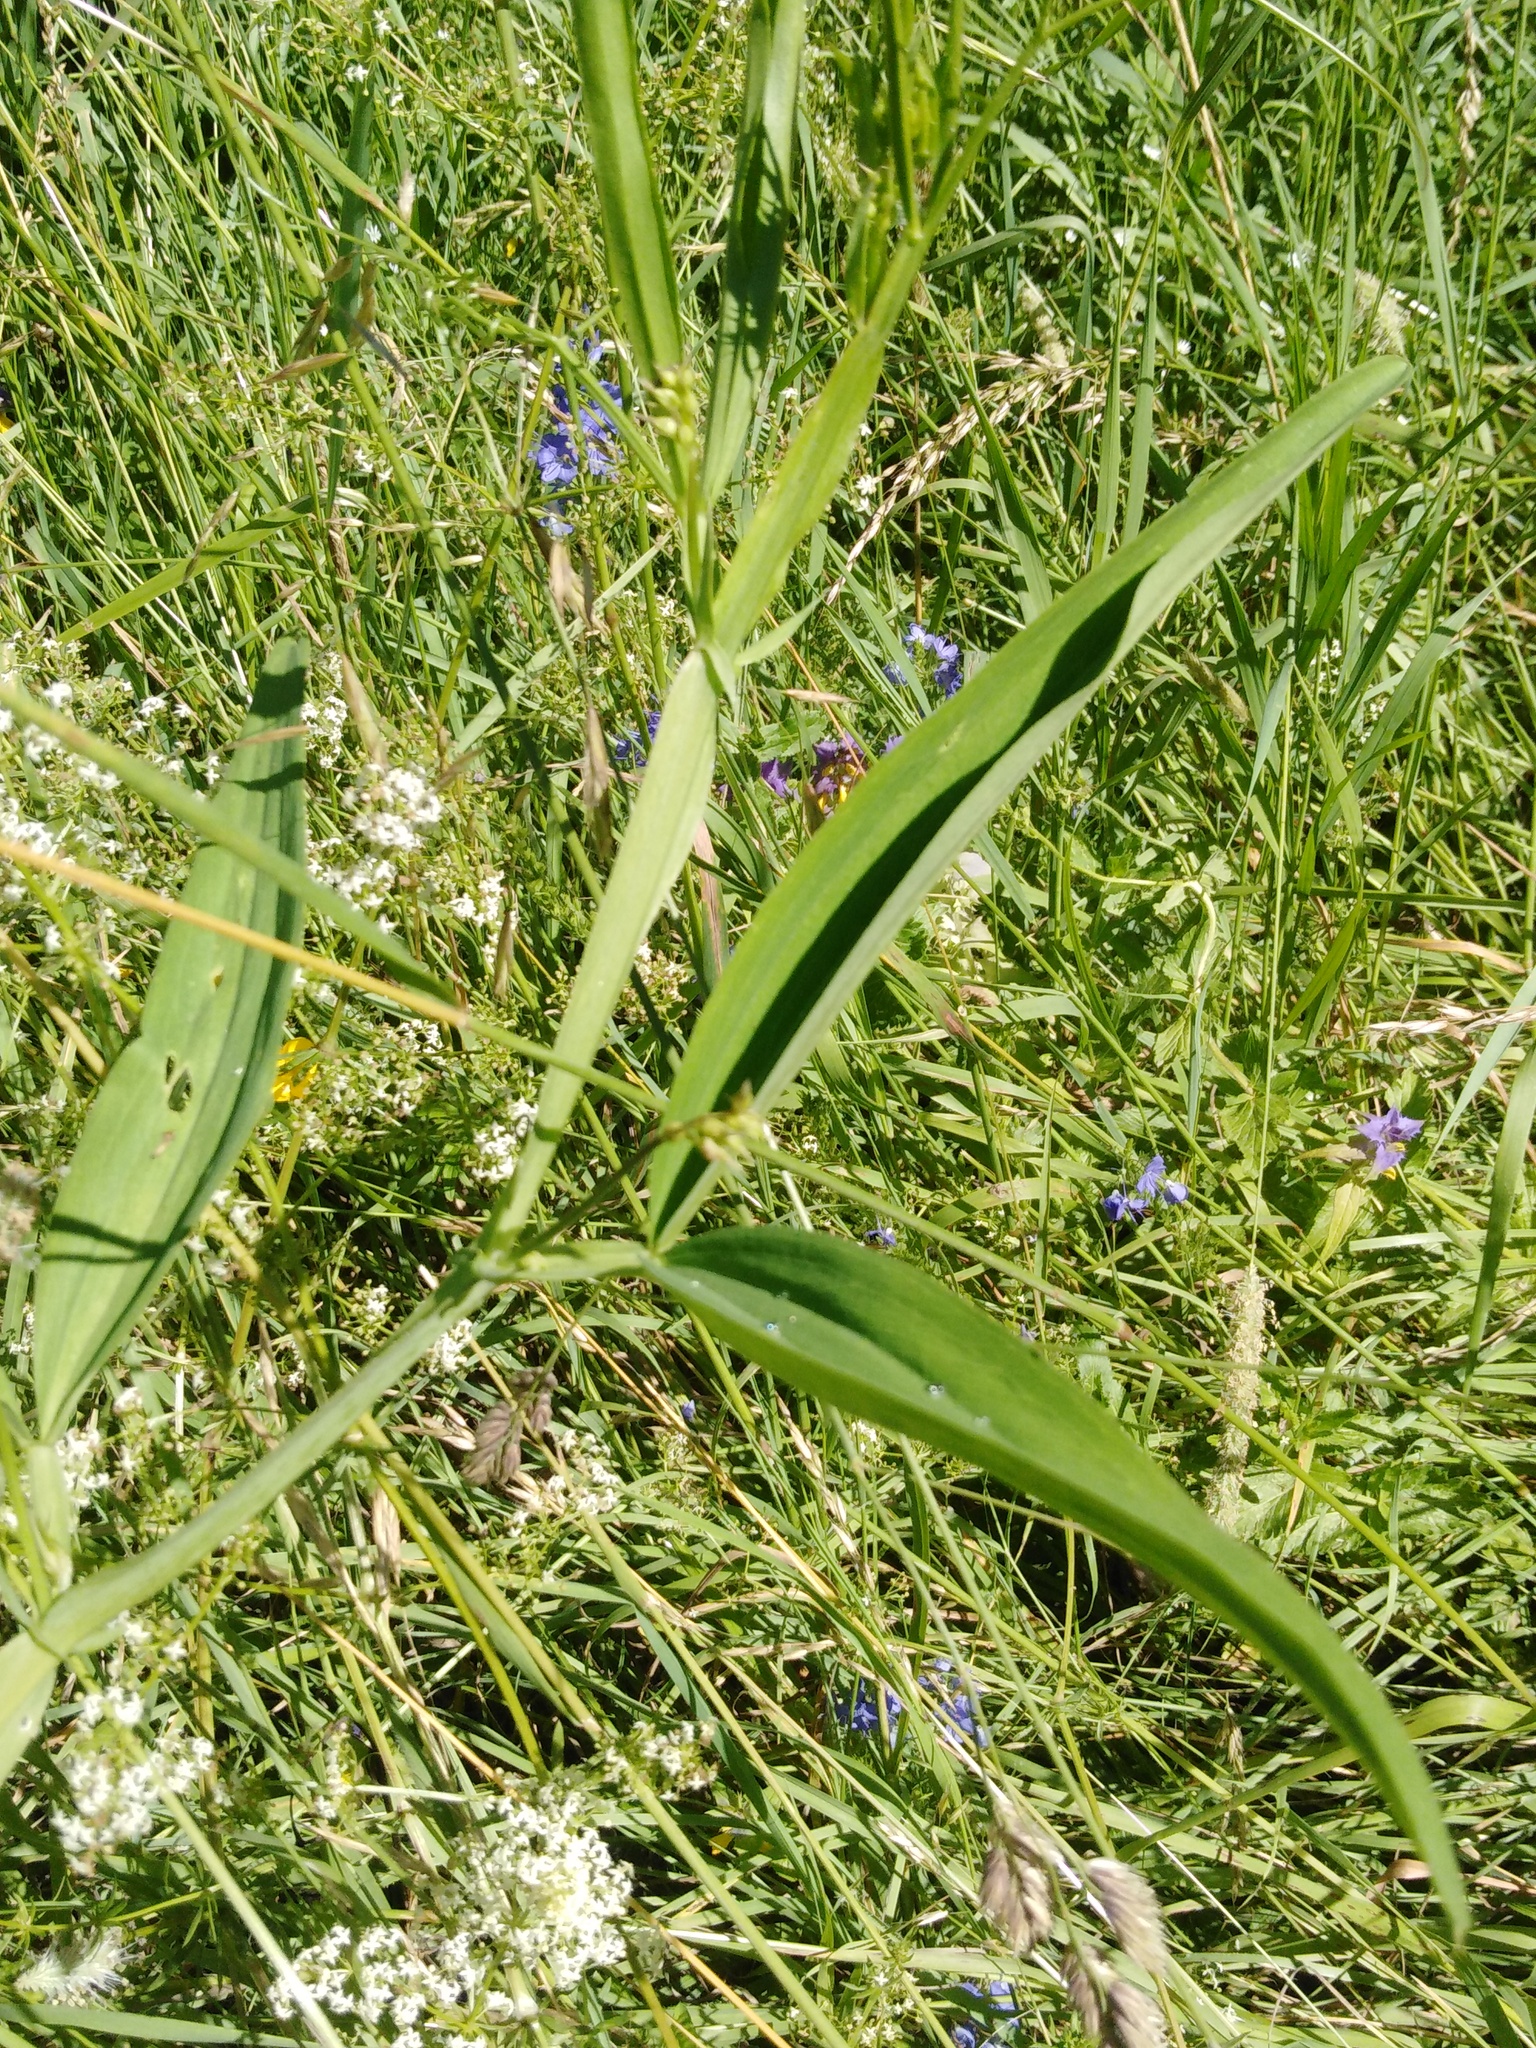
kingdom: Plantae
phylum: Tracheophyta
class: Magnoliopsida
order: Fabales
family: Fabaceae
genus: Lathyrus
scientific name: Lathyrus sylvestris
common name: Flat pea
